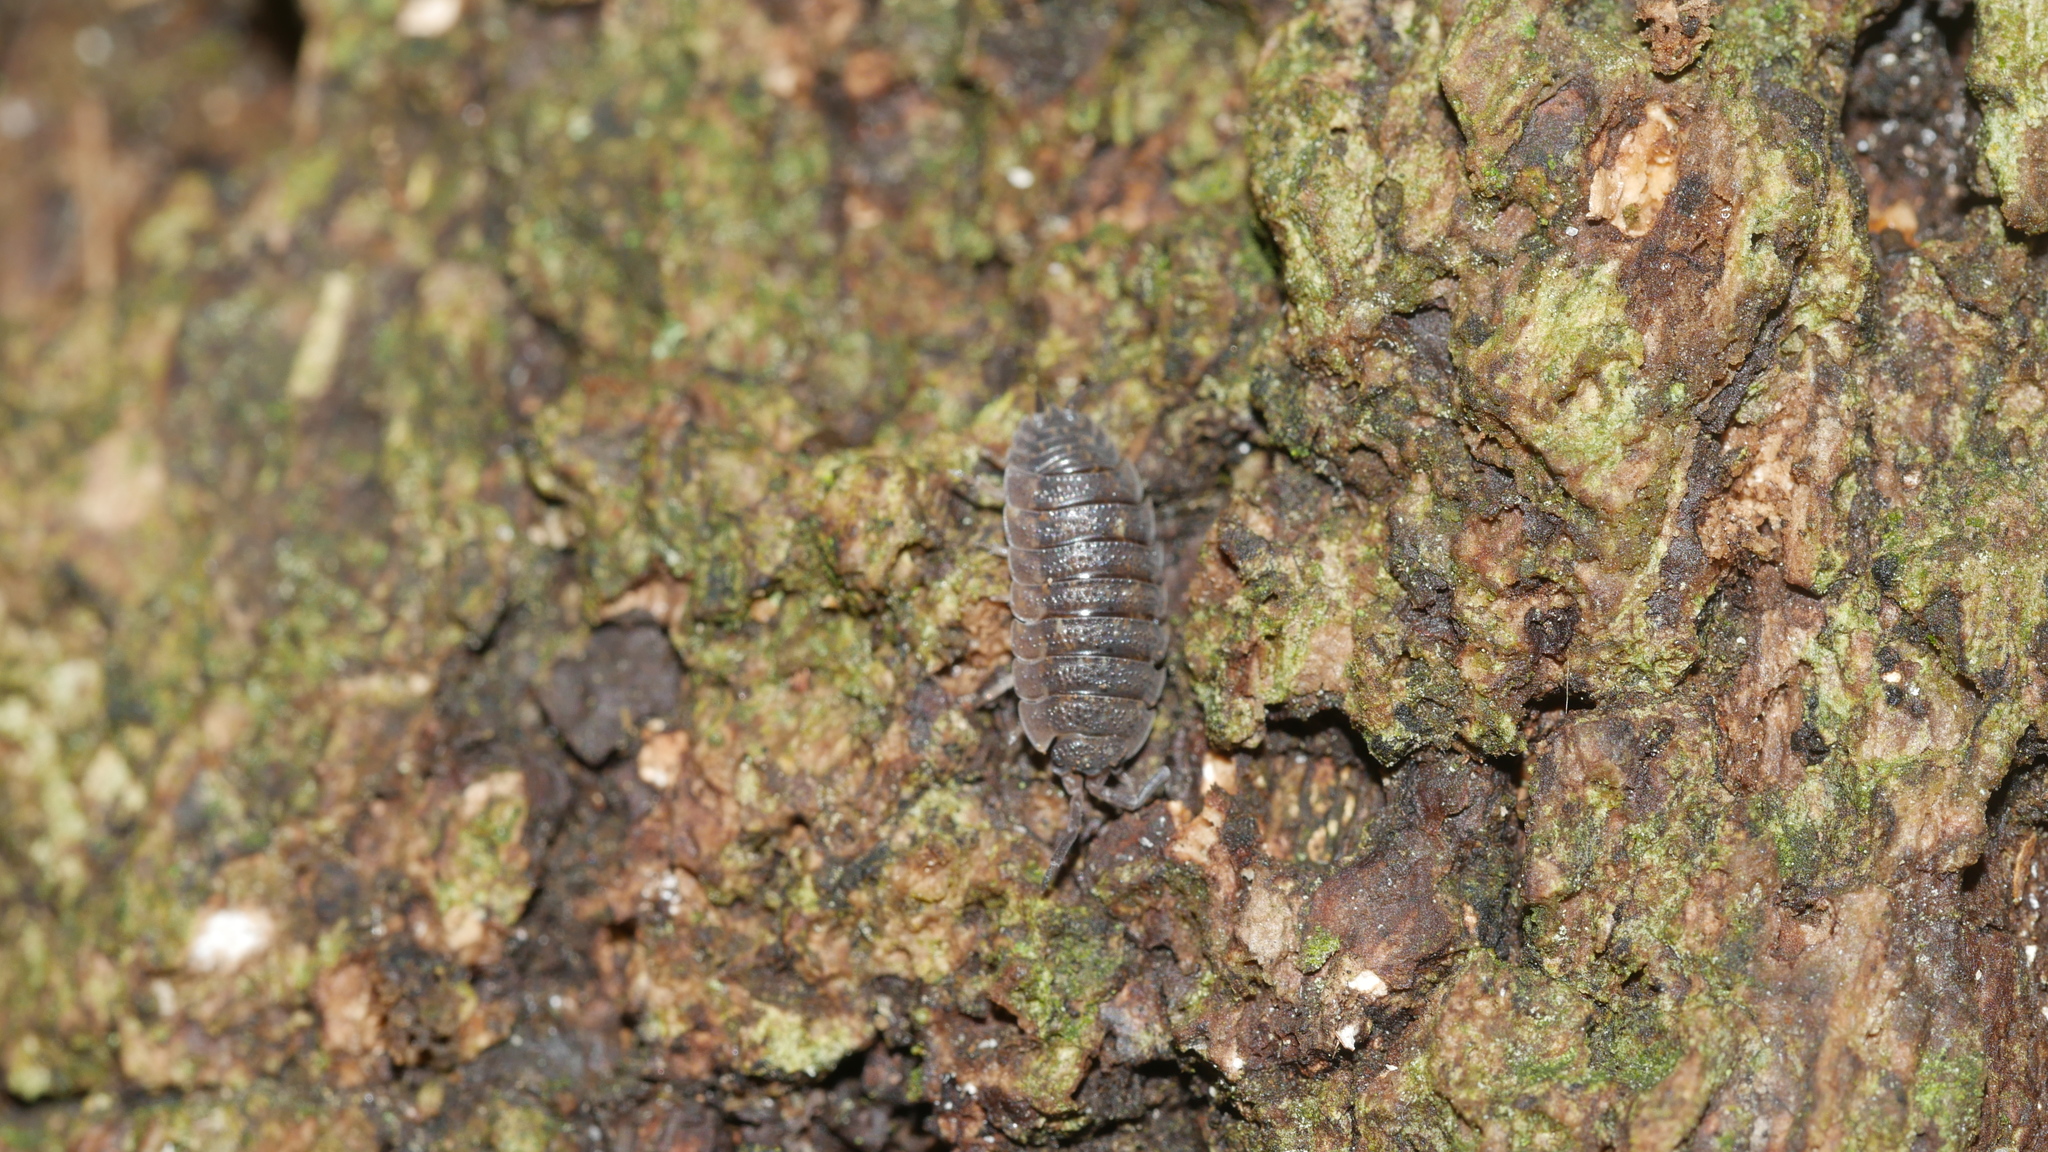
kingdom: Animalia
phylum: Arthropoda
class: Malacostraca
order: Isopoda
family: Porcellionidae
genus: Porcellio
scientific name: Porcellio scaber
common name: Common rough woodlouse
